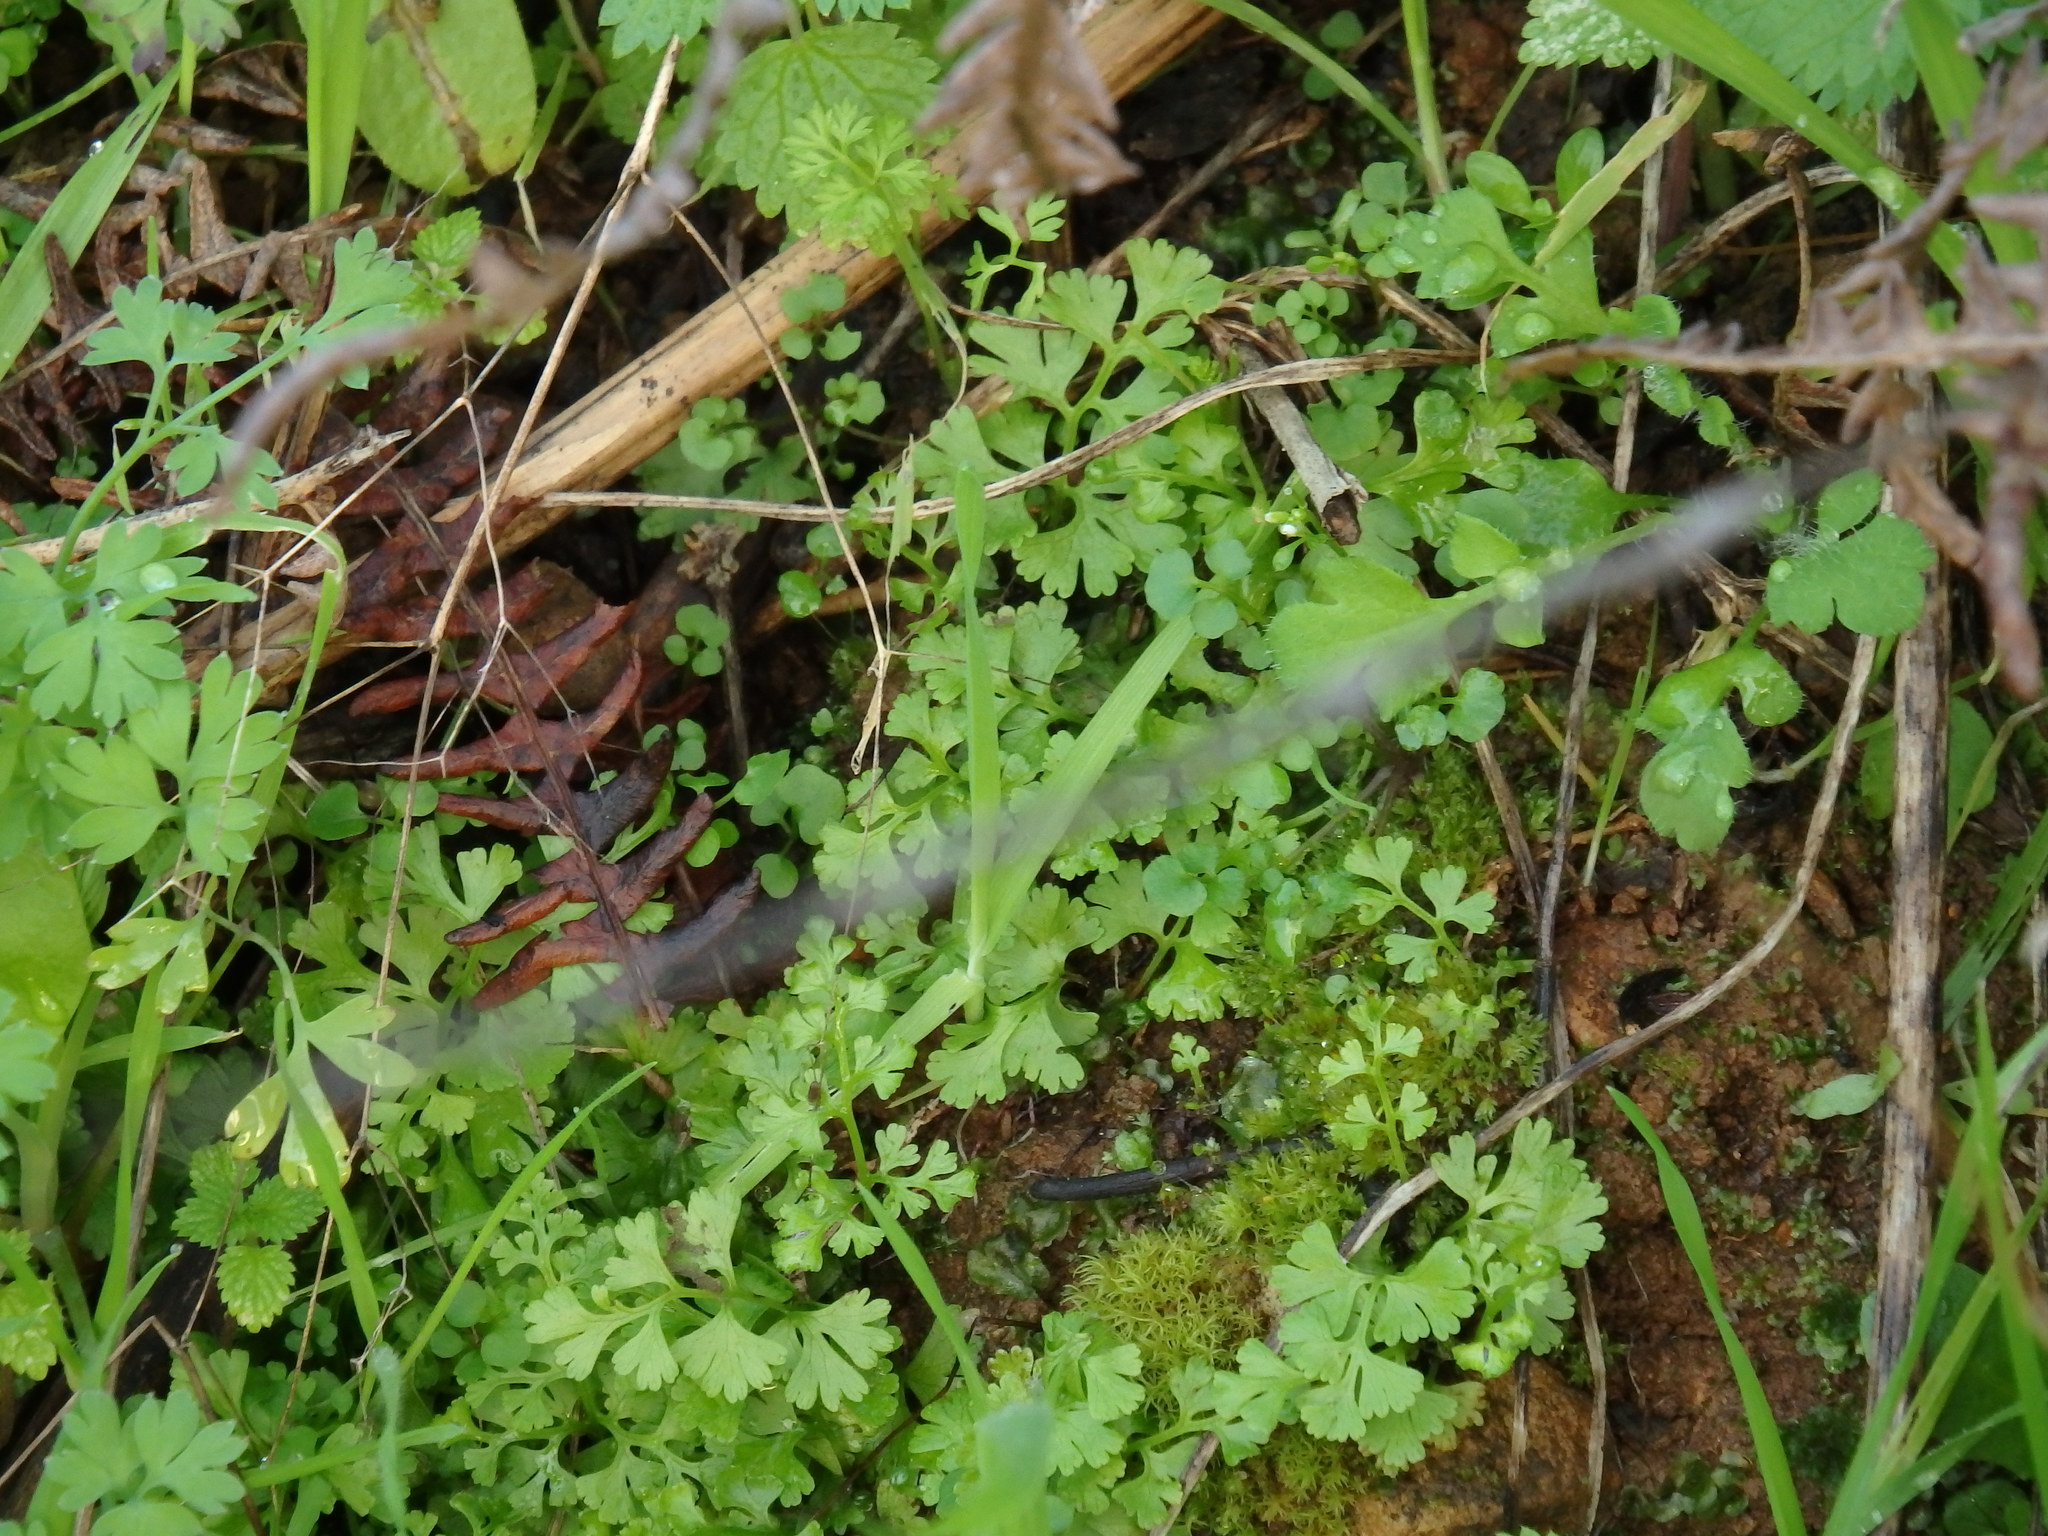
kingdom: Plantae
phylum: Tracheophyta
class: Polypodiopsida
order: Polypodiales
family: Pteridaceae
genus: Anogramma
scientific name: Anogramma leptophylla
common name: Jersey fern
